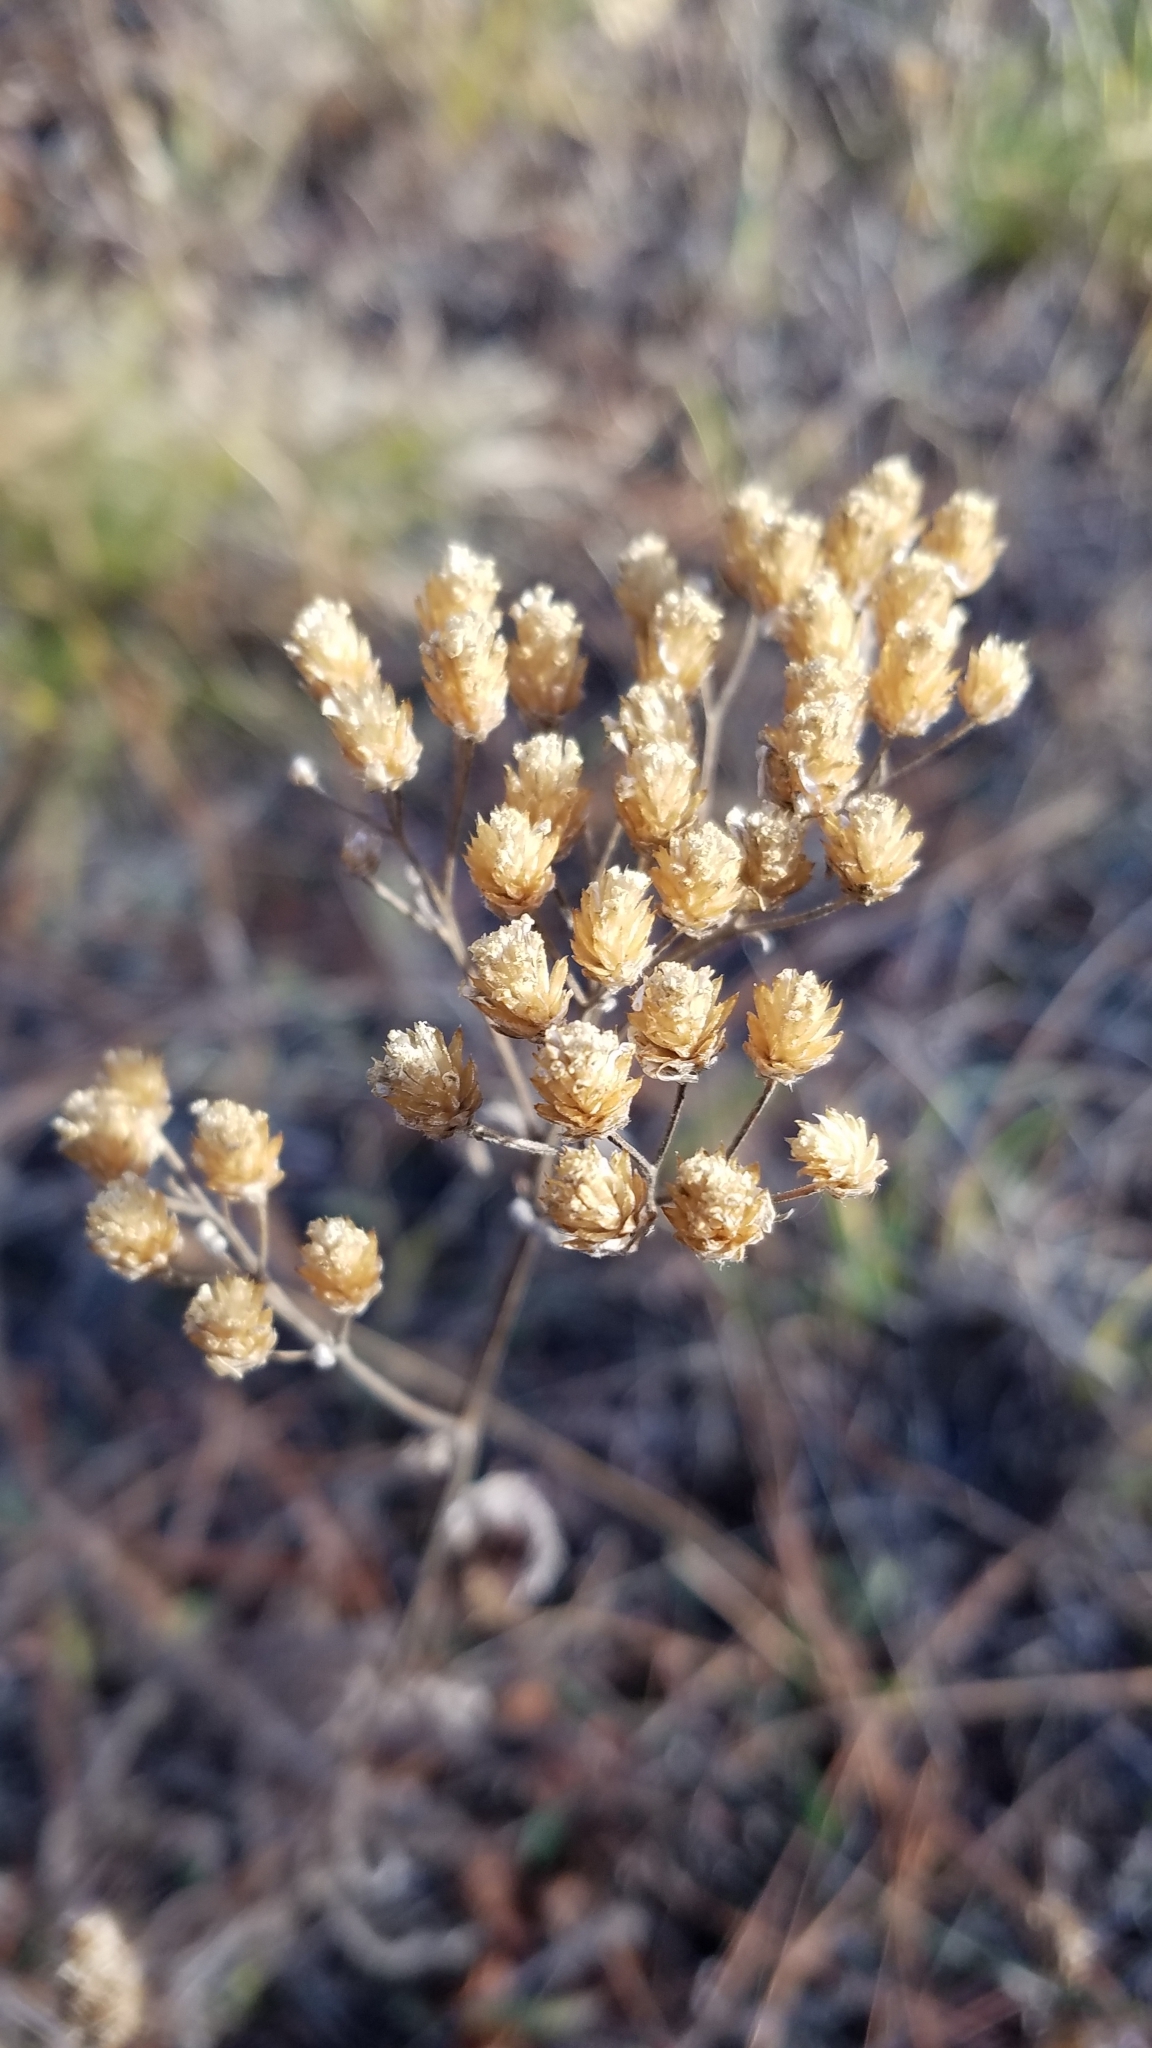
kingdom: Plantae
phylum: Tracheophyta
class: Magnoliopsida
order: Asterales
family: Asteraceae
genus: Achillea
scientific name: Achillea millefolium
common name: Yarrow
